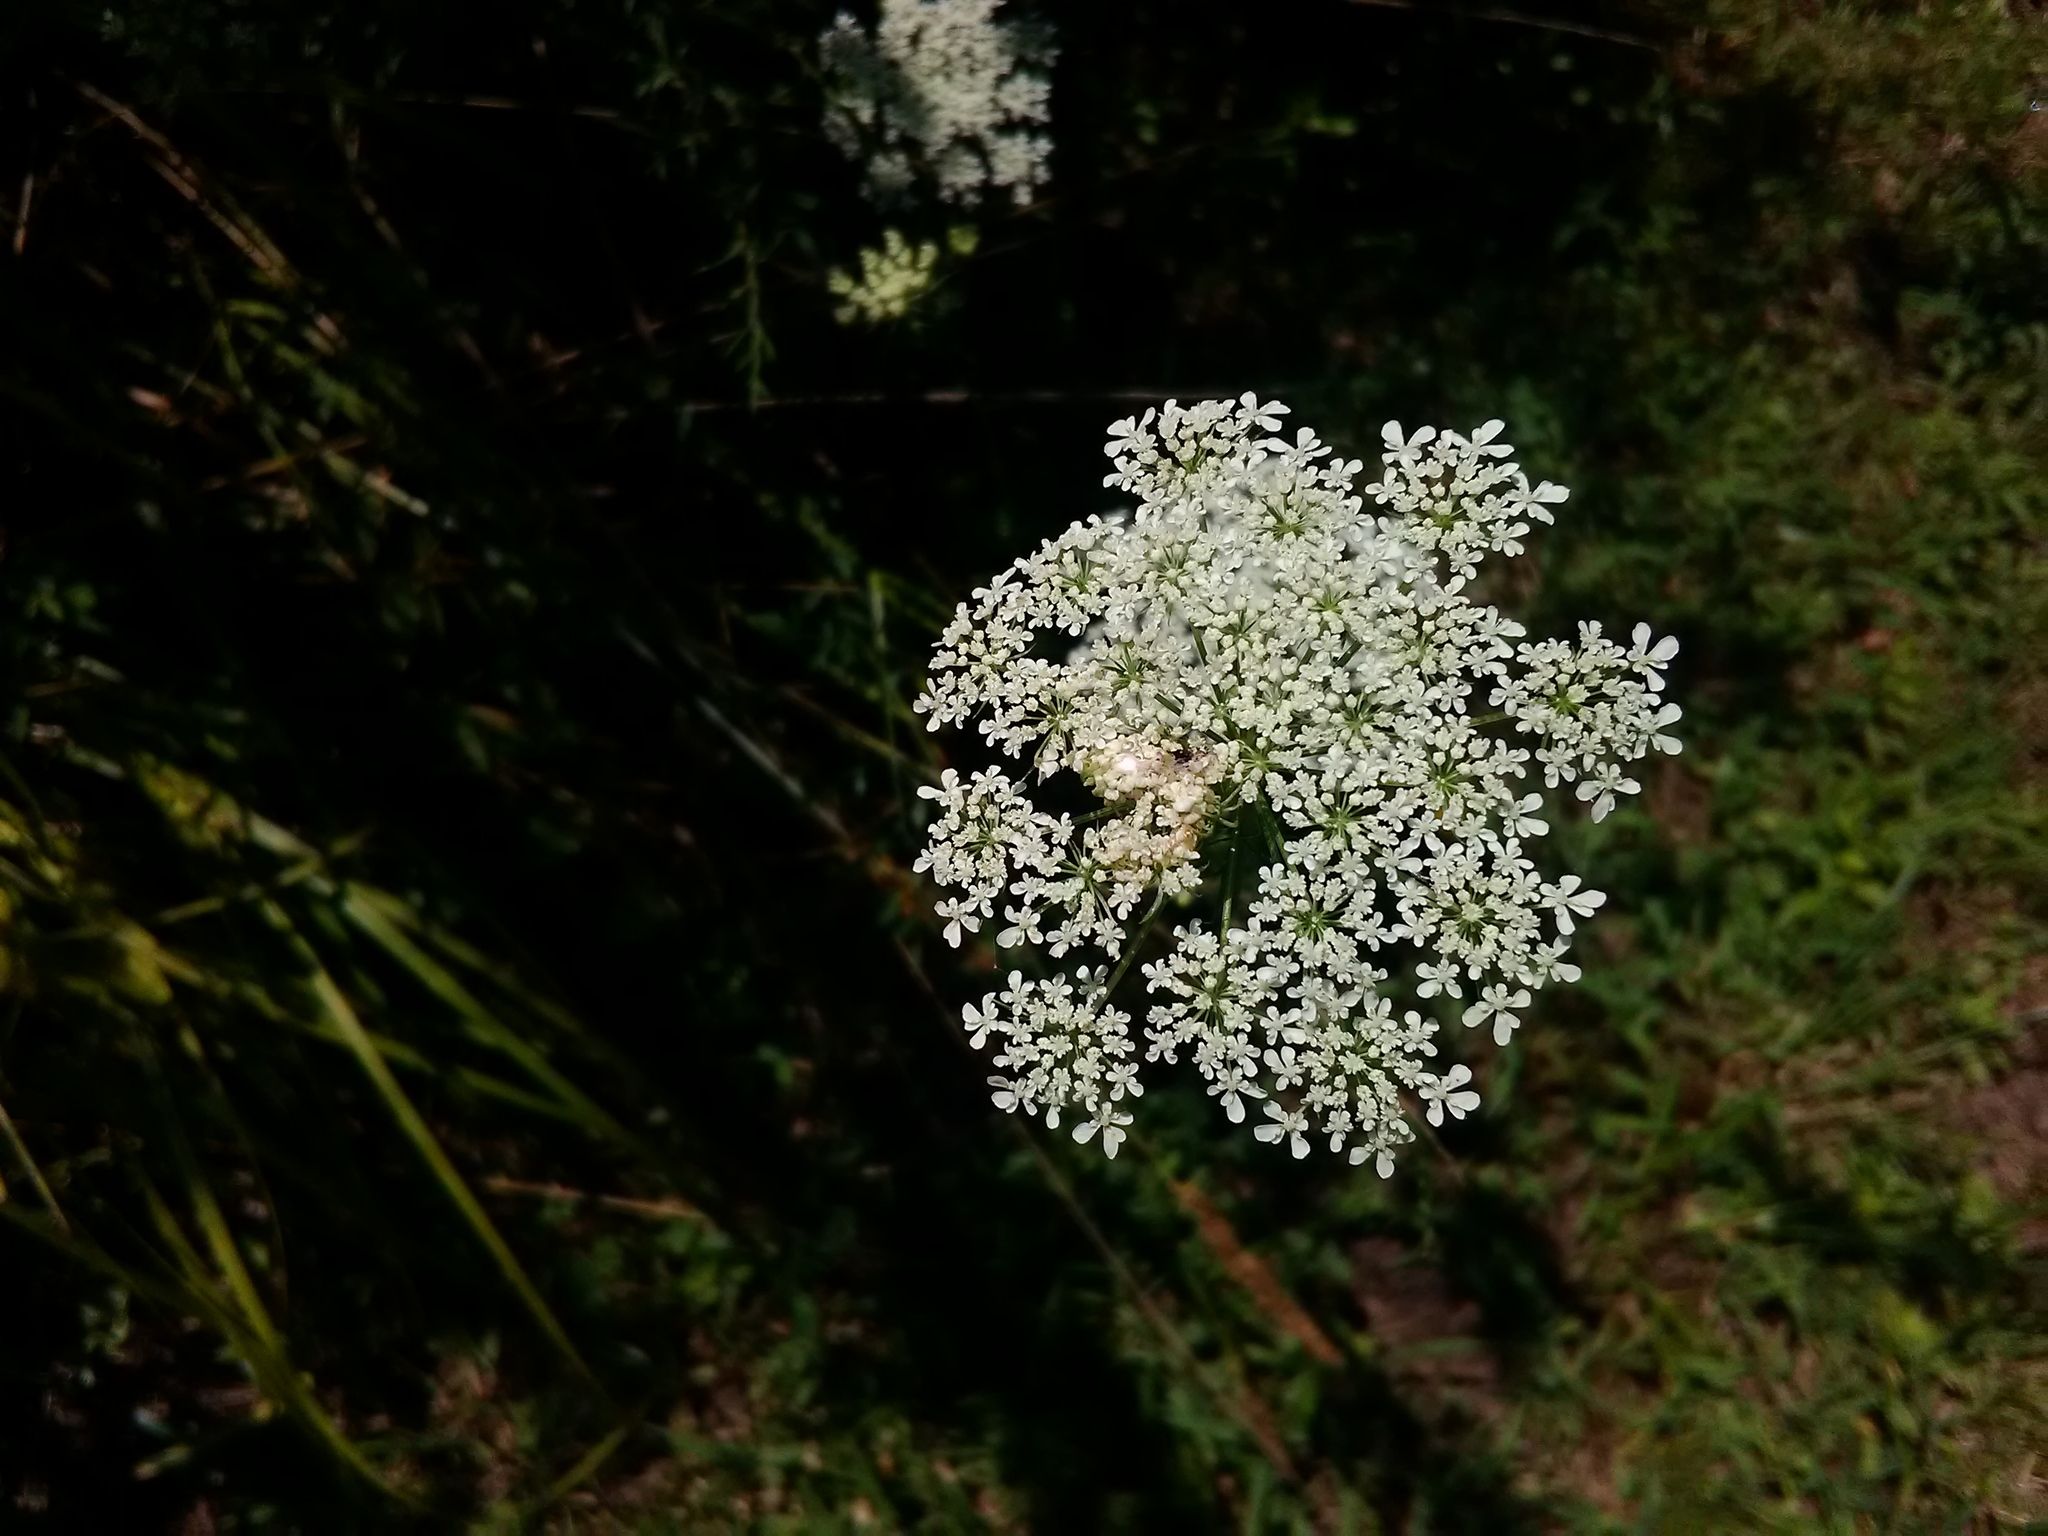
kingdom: Plantae
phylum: Tracheophyta
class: Magnoliopsida
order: Apiales
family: Apiaceae
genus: Daucus
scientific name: Daucus carota
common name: Wild carrot
